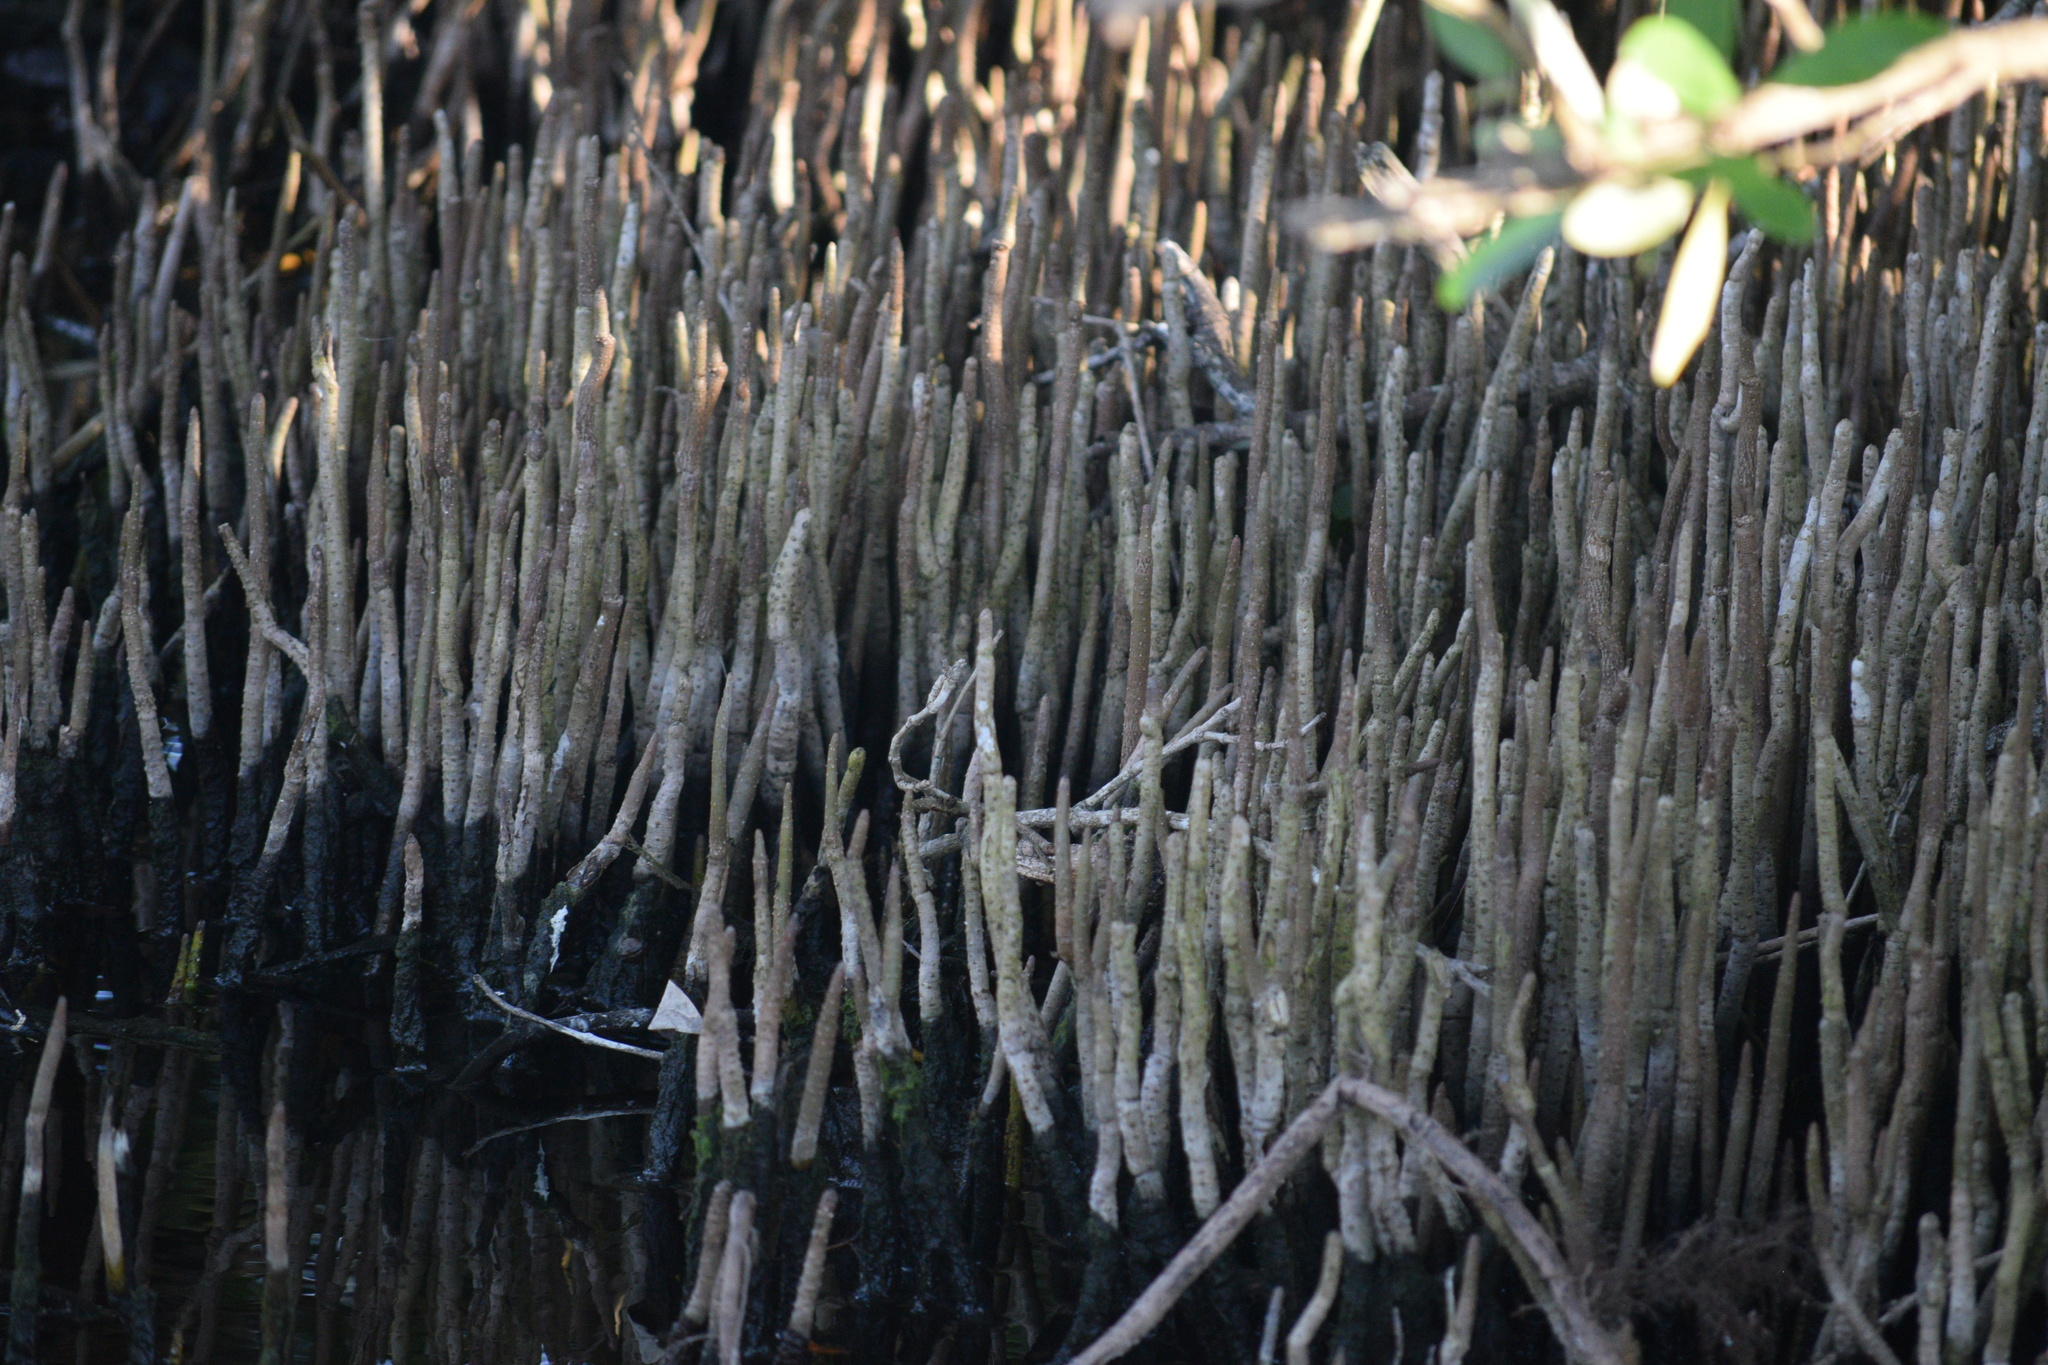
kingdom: Plantae
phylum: Tracheophyta
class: Magnoliopsida
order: Lamiales
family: Acanthaceae
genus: Avicennia
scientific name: Avicennia germinans
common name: Black mangrove
